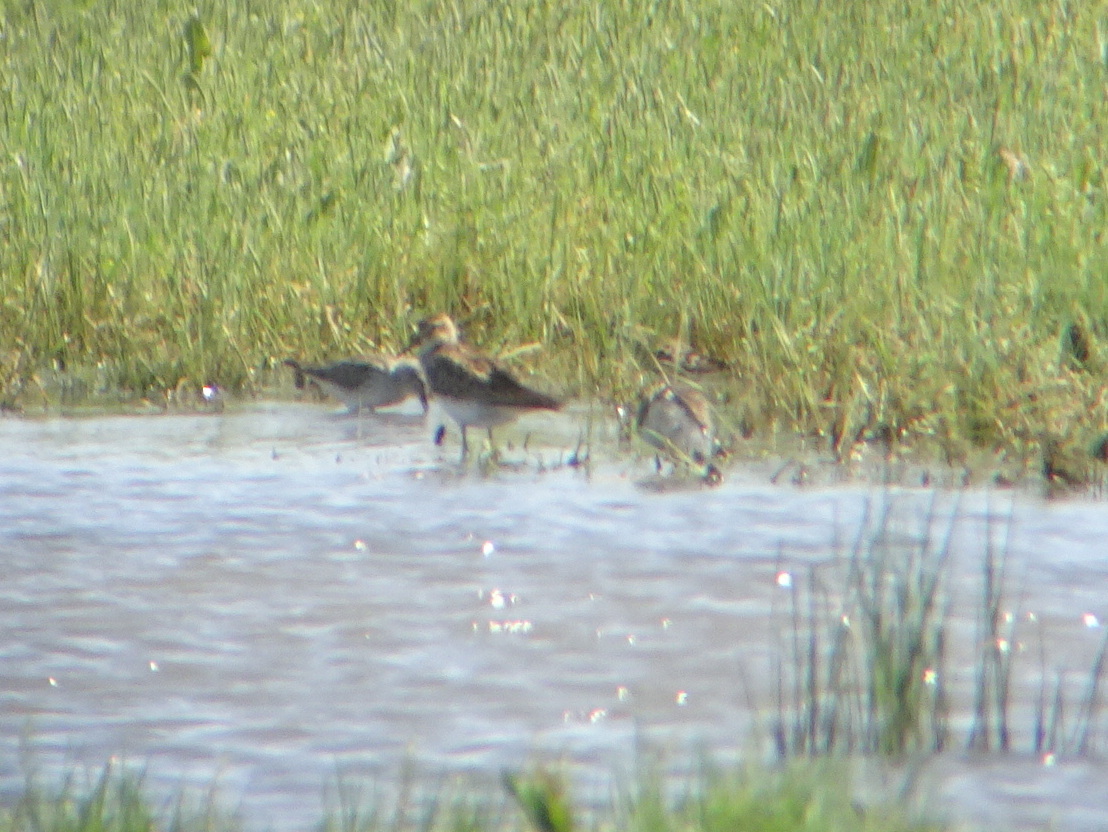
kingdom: Animalia
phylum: Chordata
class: Aves
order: Charadriiformes
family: Scolopacidae
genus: Calidris
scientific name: Calidris melanotos
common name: Pectoral sandpiper
